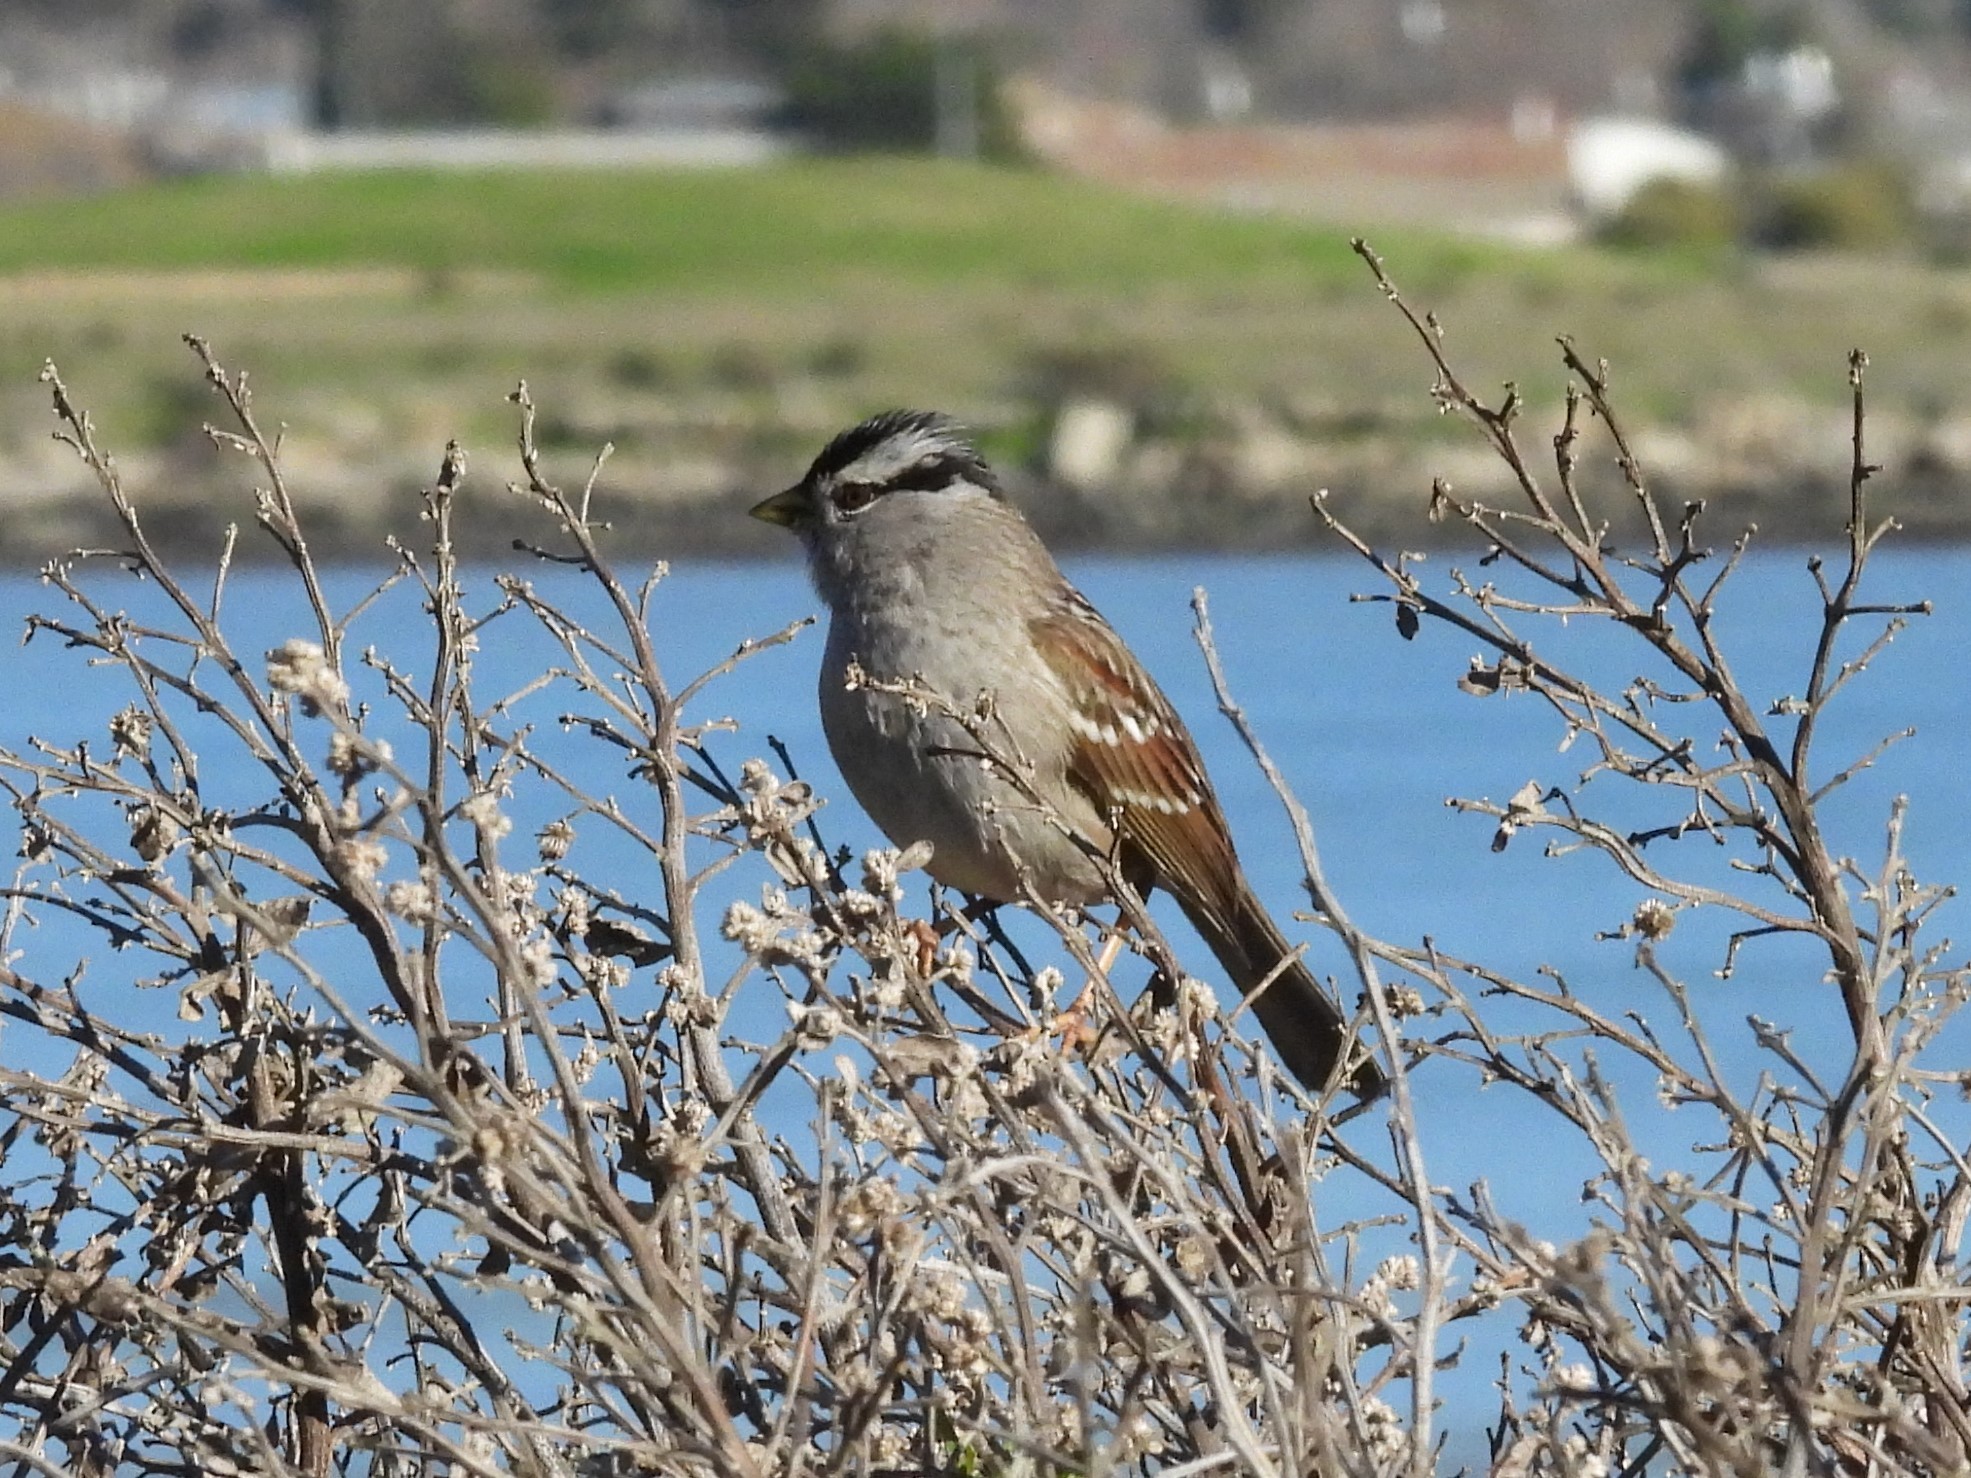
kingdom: Animalia
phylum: Chordata
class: Aves
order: Passeriformes
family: Passerellidae
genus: Zonotrichia
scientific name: Zonotrichia leucophrys
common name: White-crowned sparrow
